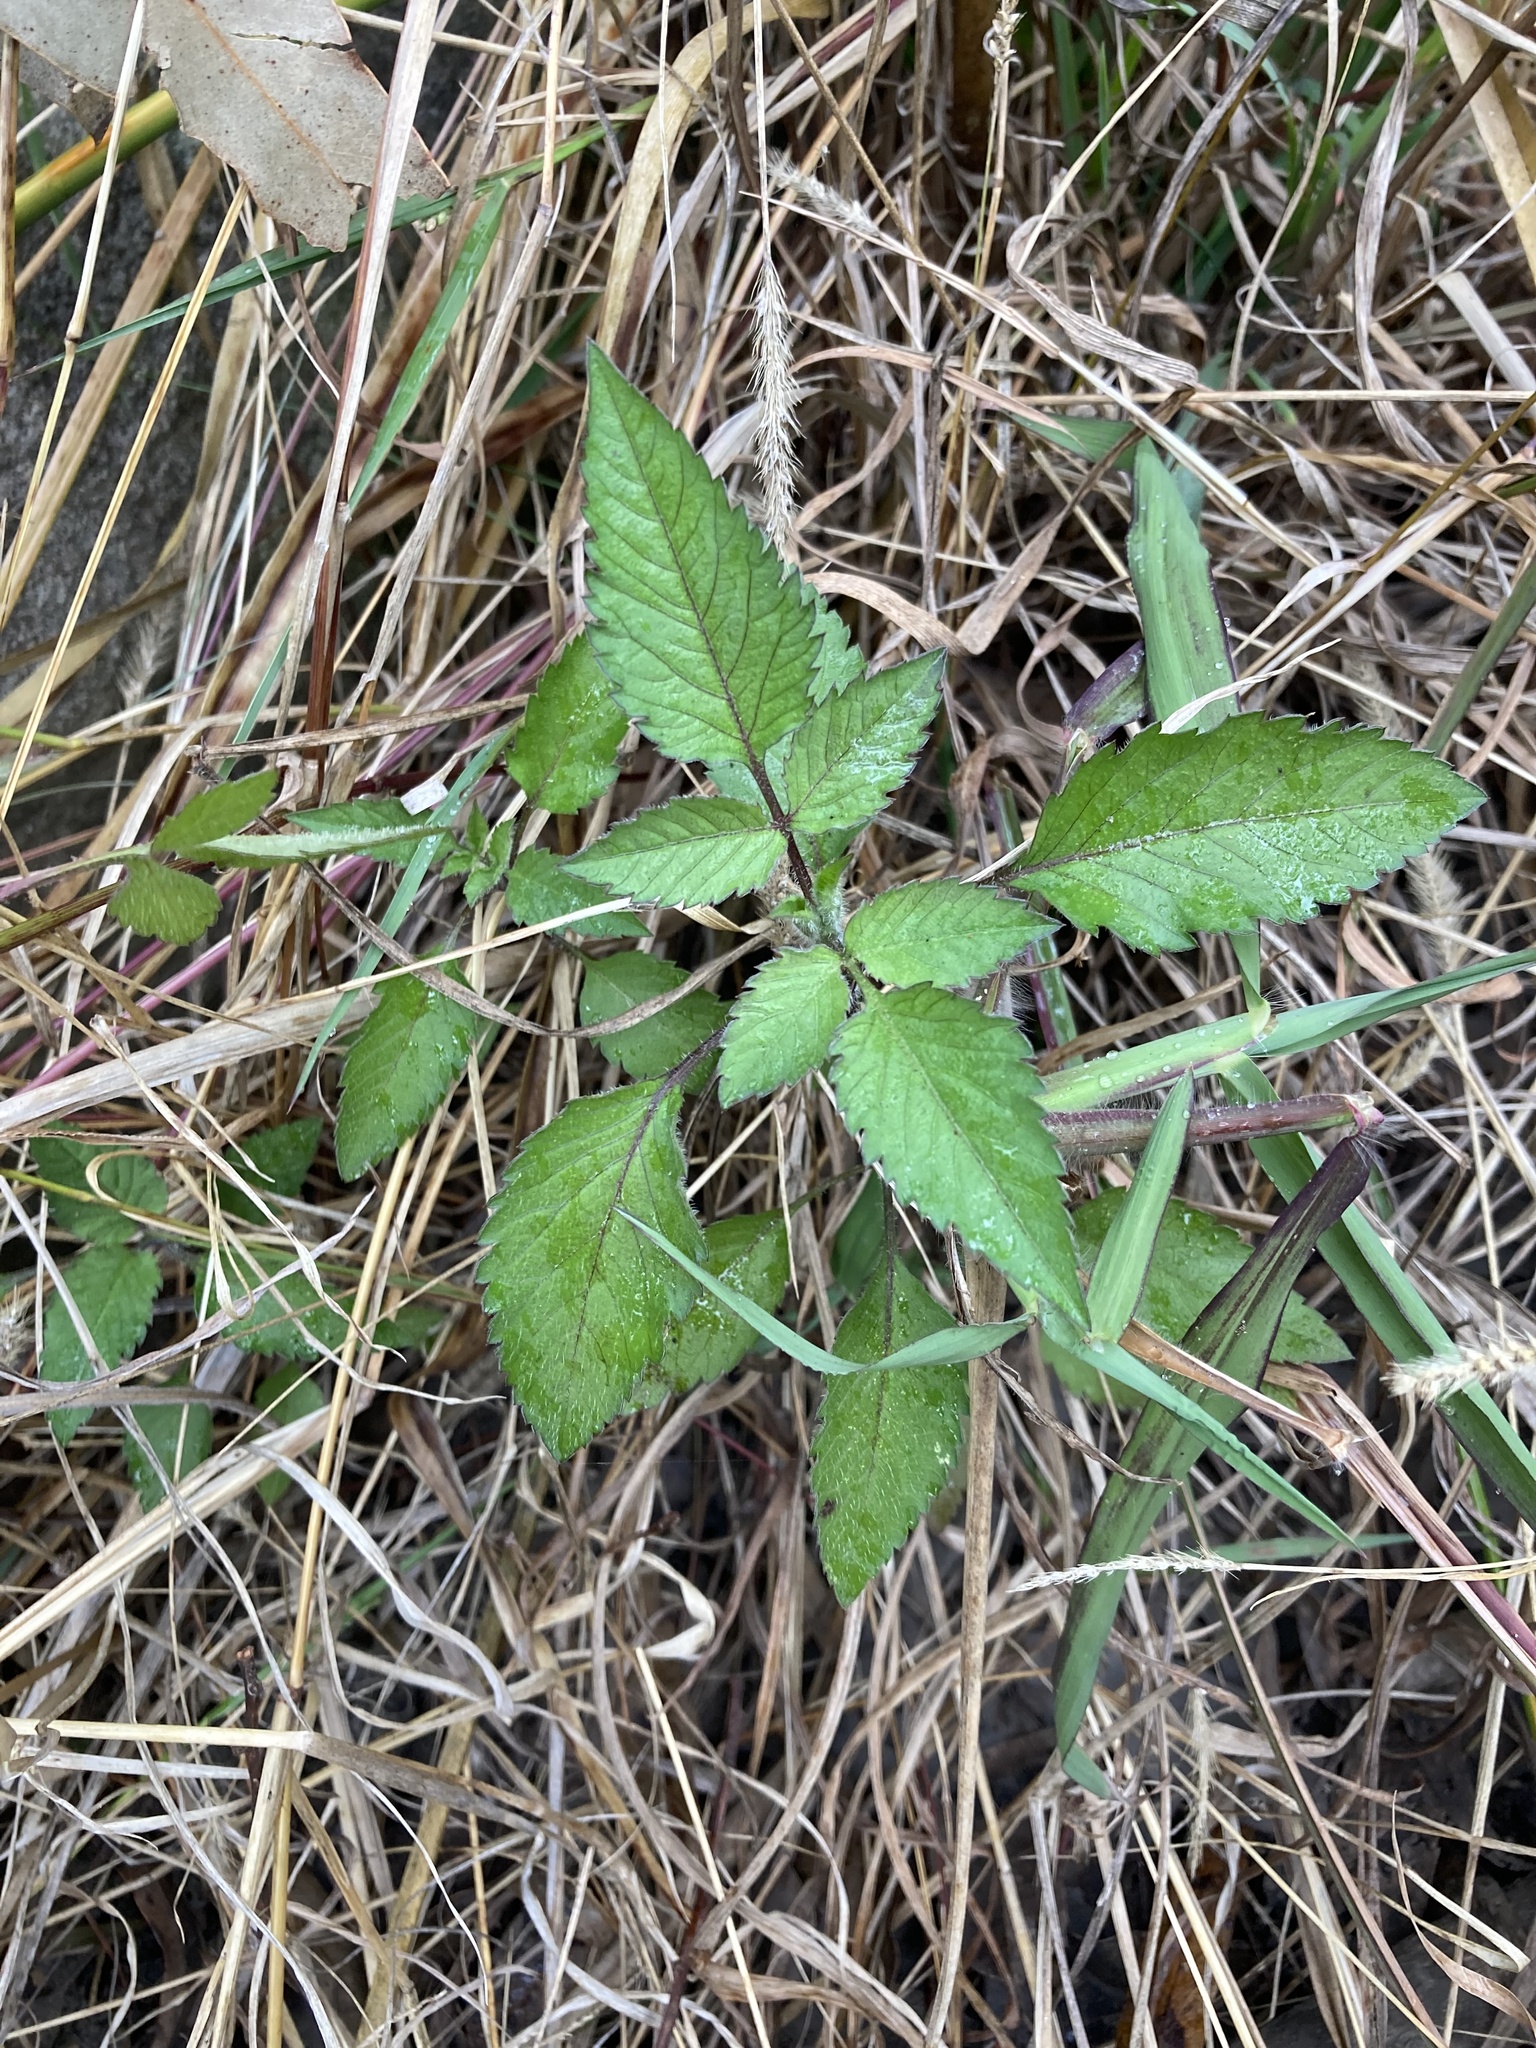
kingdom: Plantae
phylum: Tracheophyta
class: Magnoliopsida
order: Asterales
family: Asteraceae
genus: Bidens
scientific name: Bidens pilosa
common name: Black-jack
